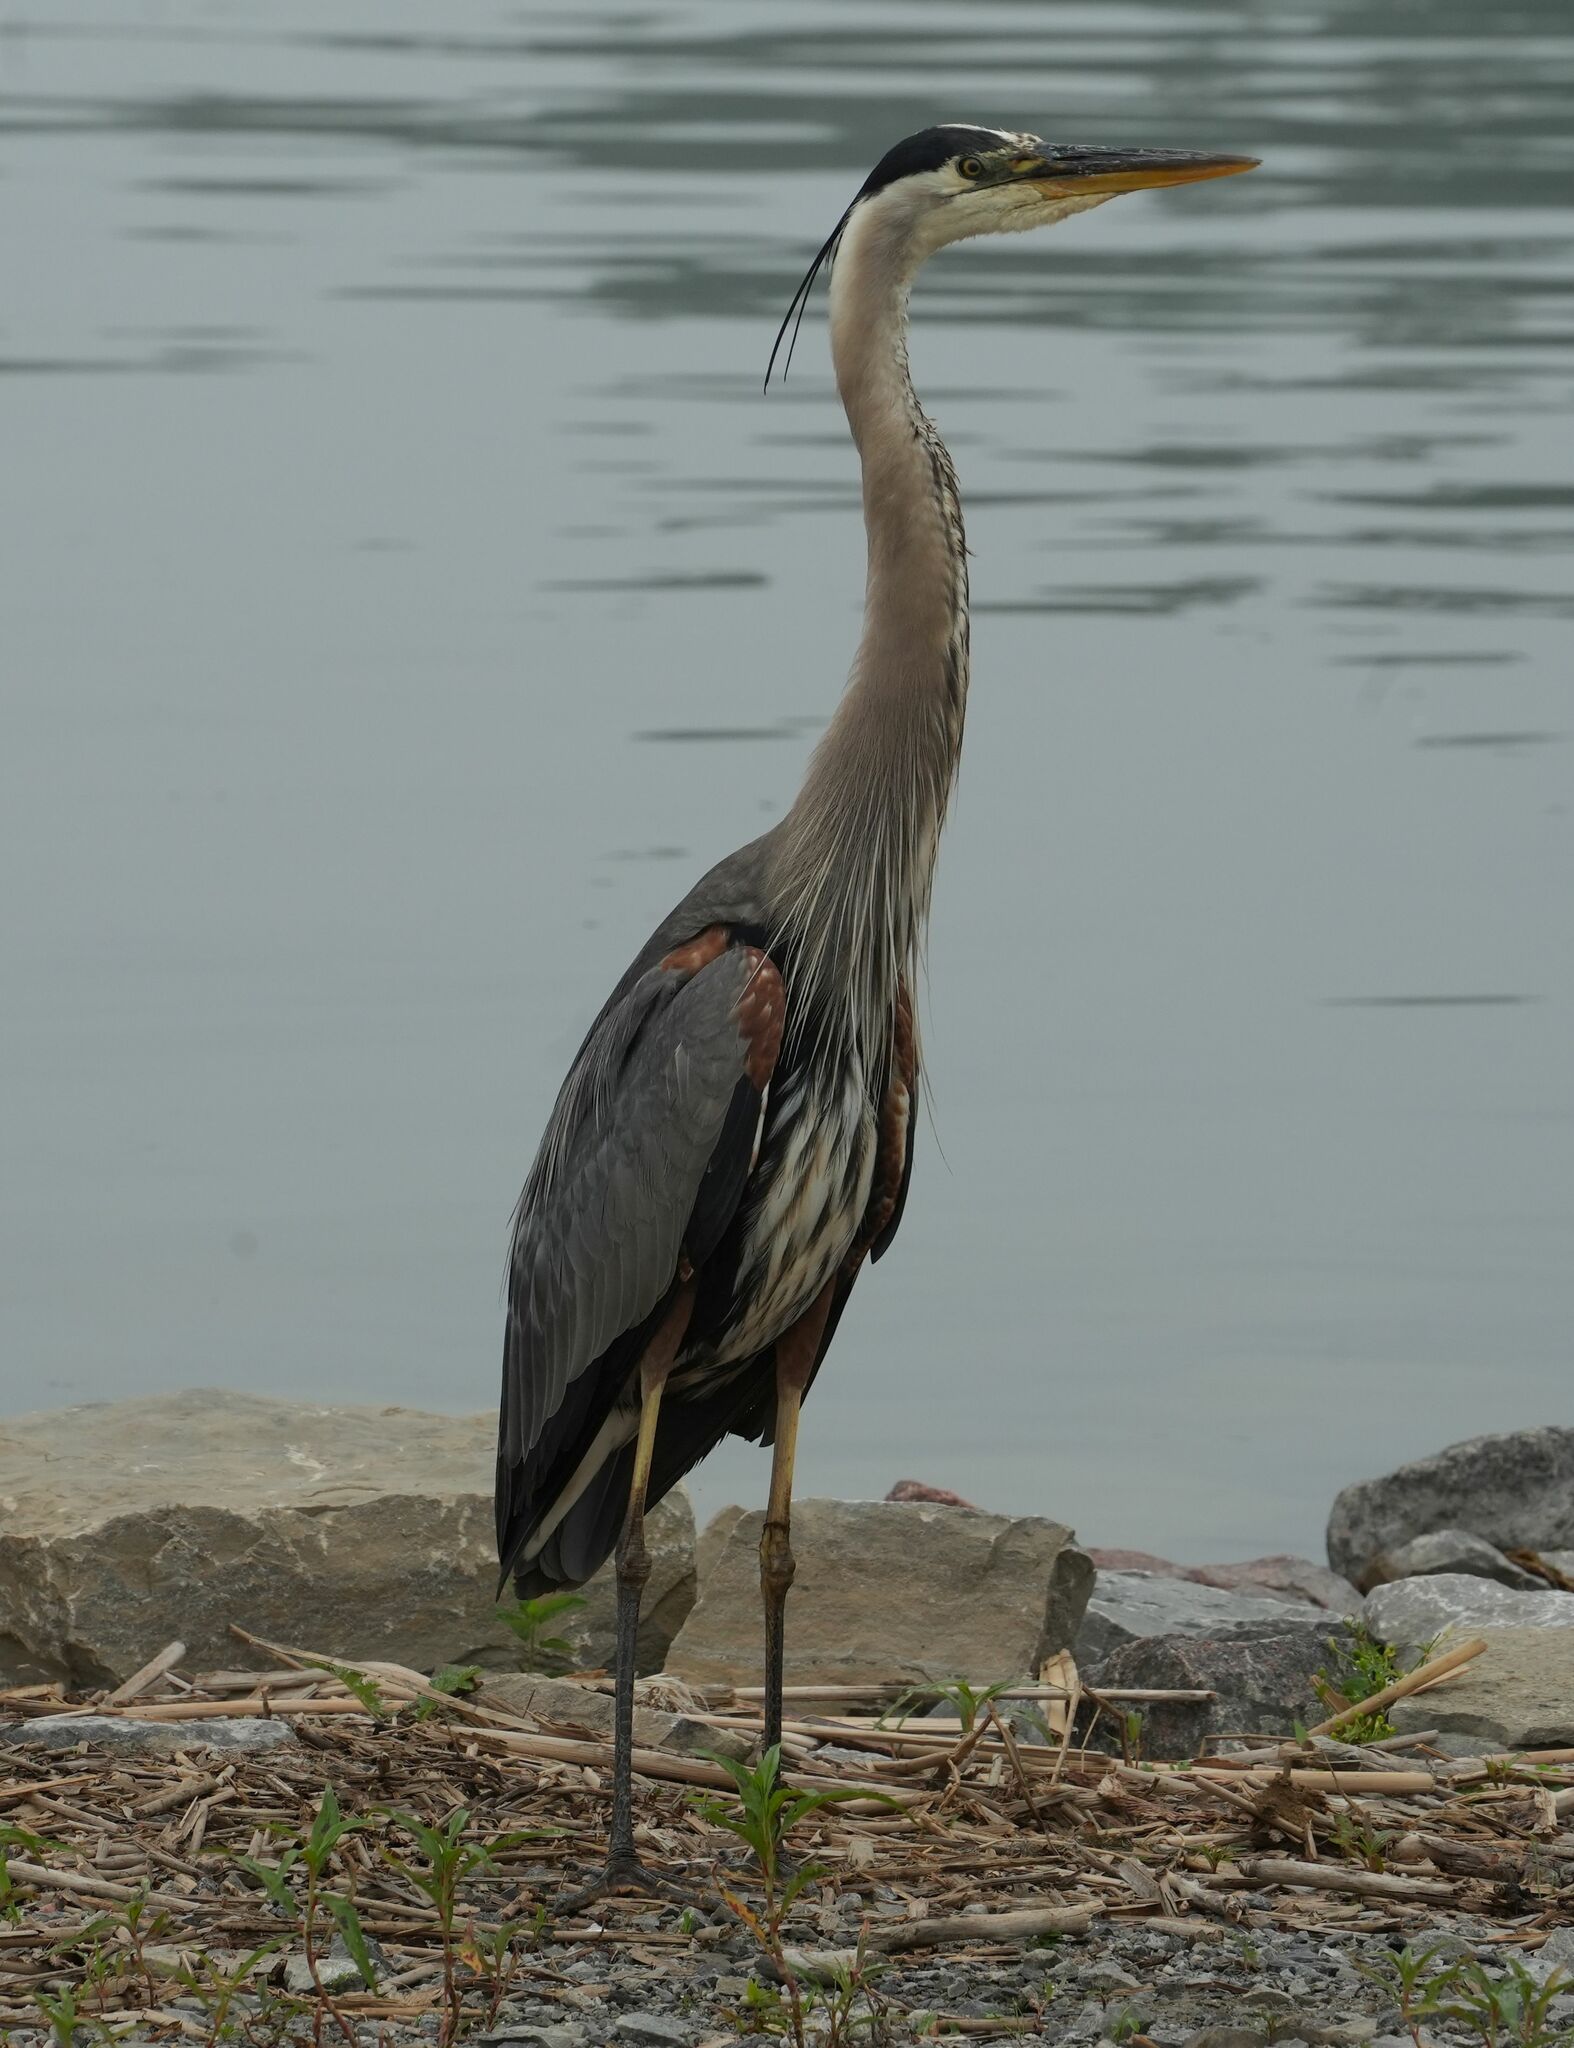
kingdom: Animalia
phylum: Chordata
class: Aves
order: Pelecaniformes
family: Ardeidae
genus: Ardea
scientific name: Ardea herodias
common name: Great blue heron
